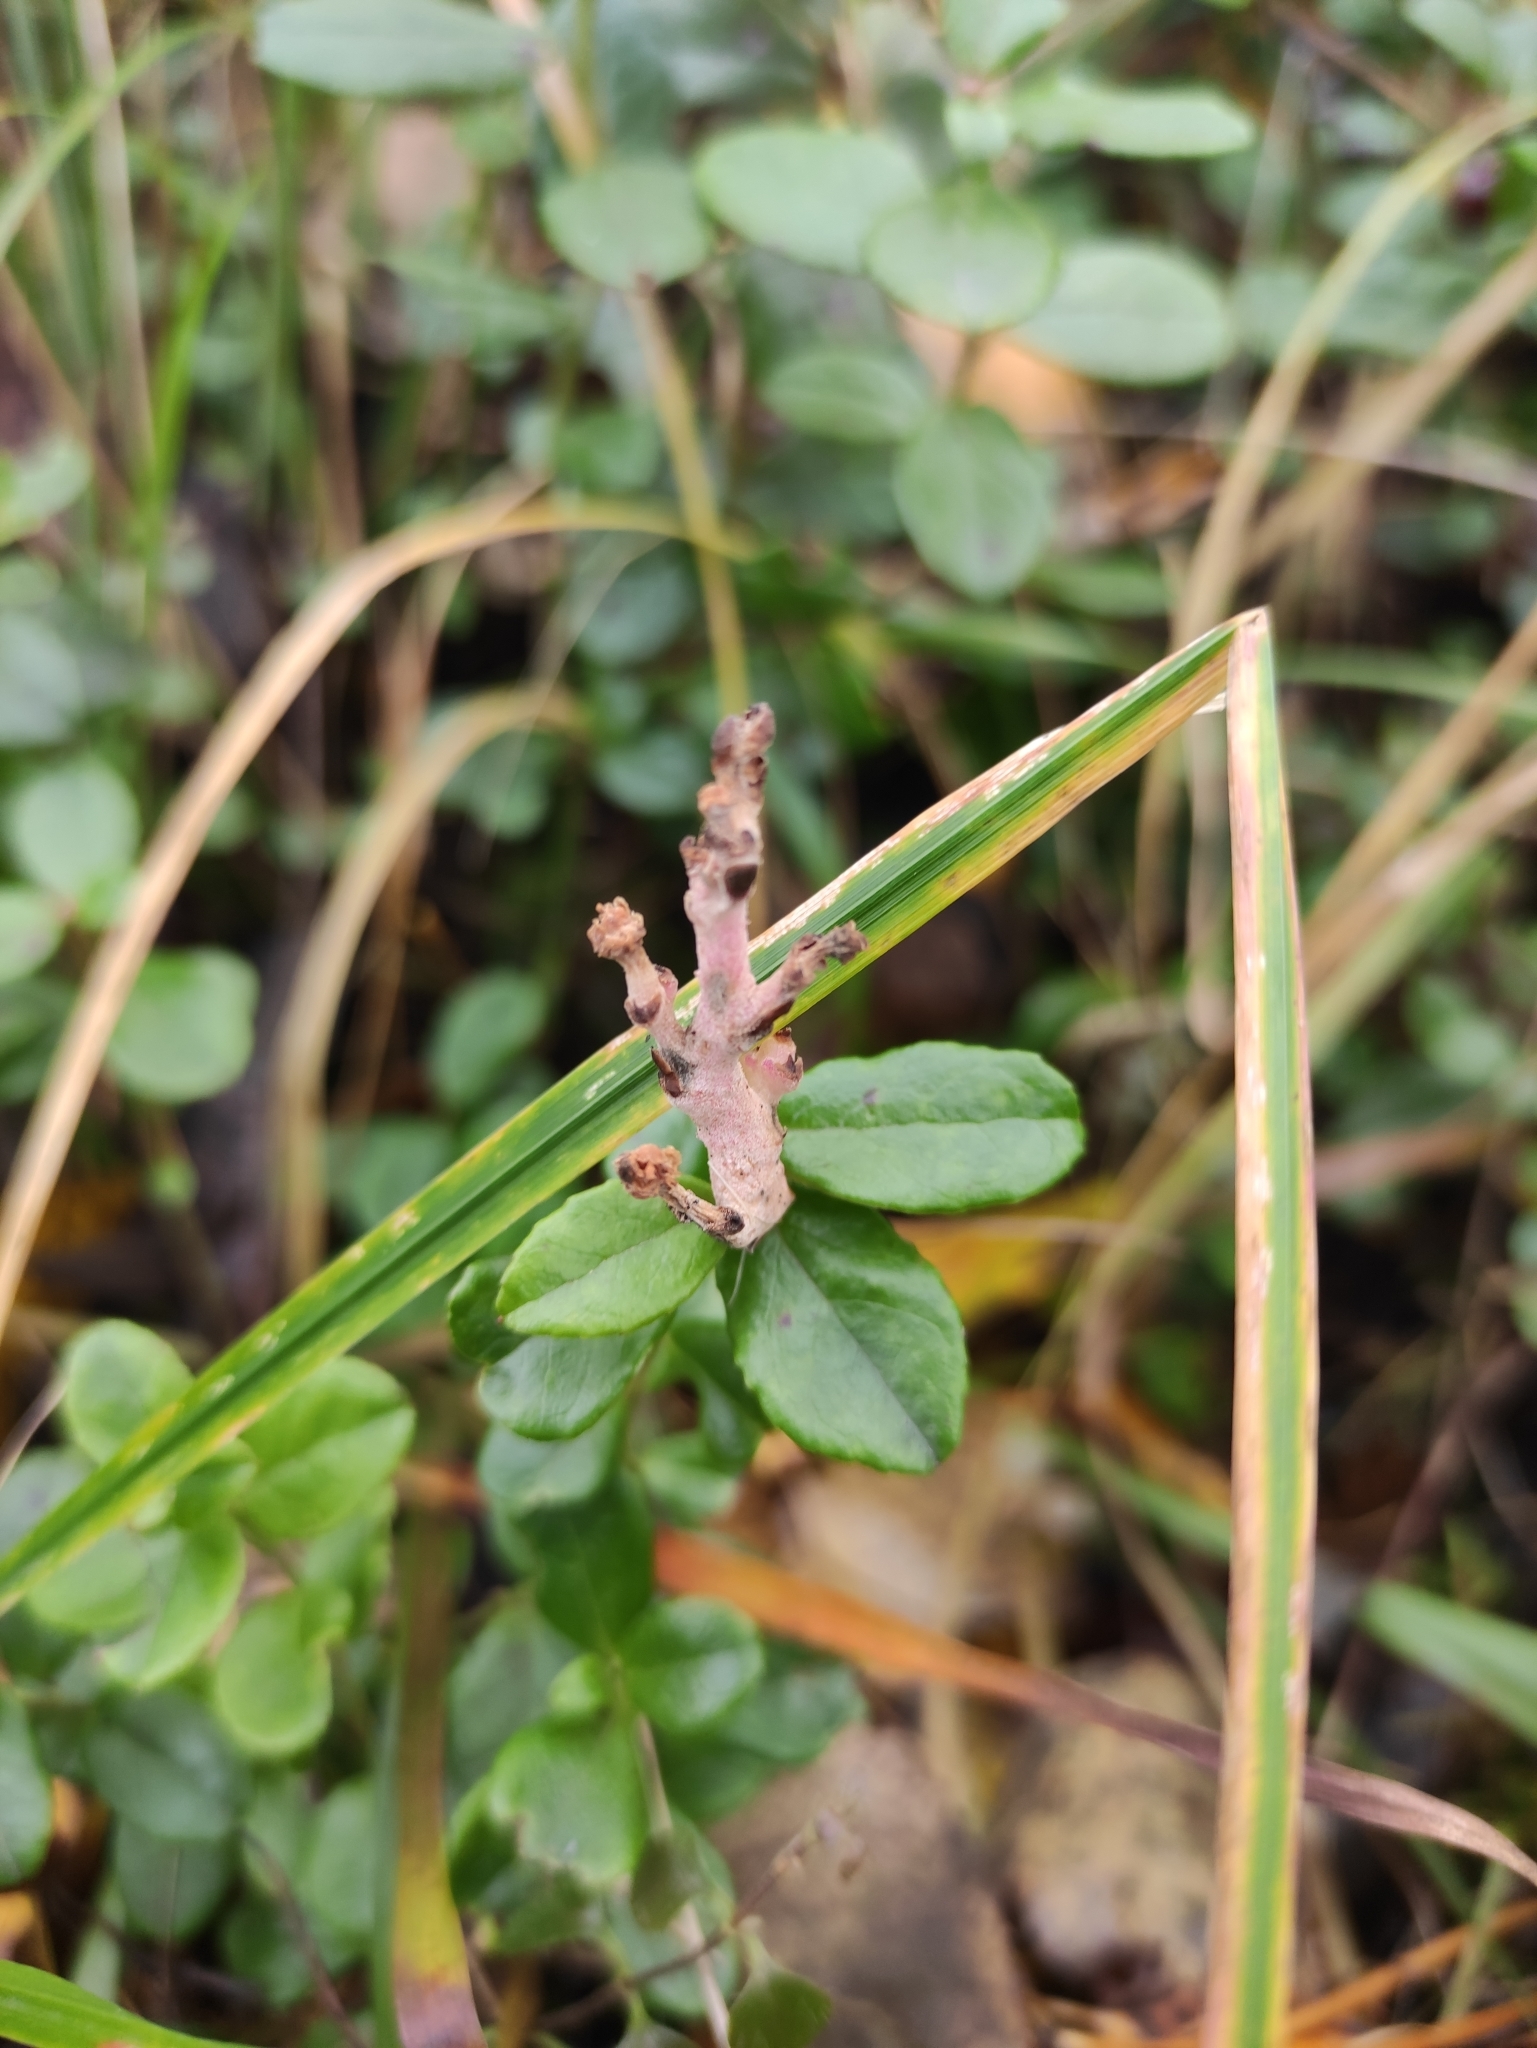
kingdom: Fungi
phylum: Basidiomycota
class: Exobasidiomycetes
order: Exobasidiales
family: Exobasidiaceae
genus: Exobasidium
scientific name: Exobasidium vaccinii
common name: Cowberry redleaf
